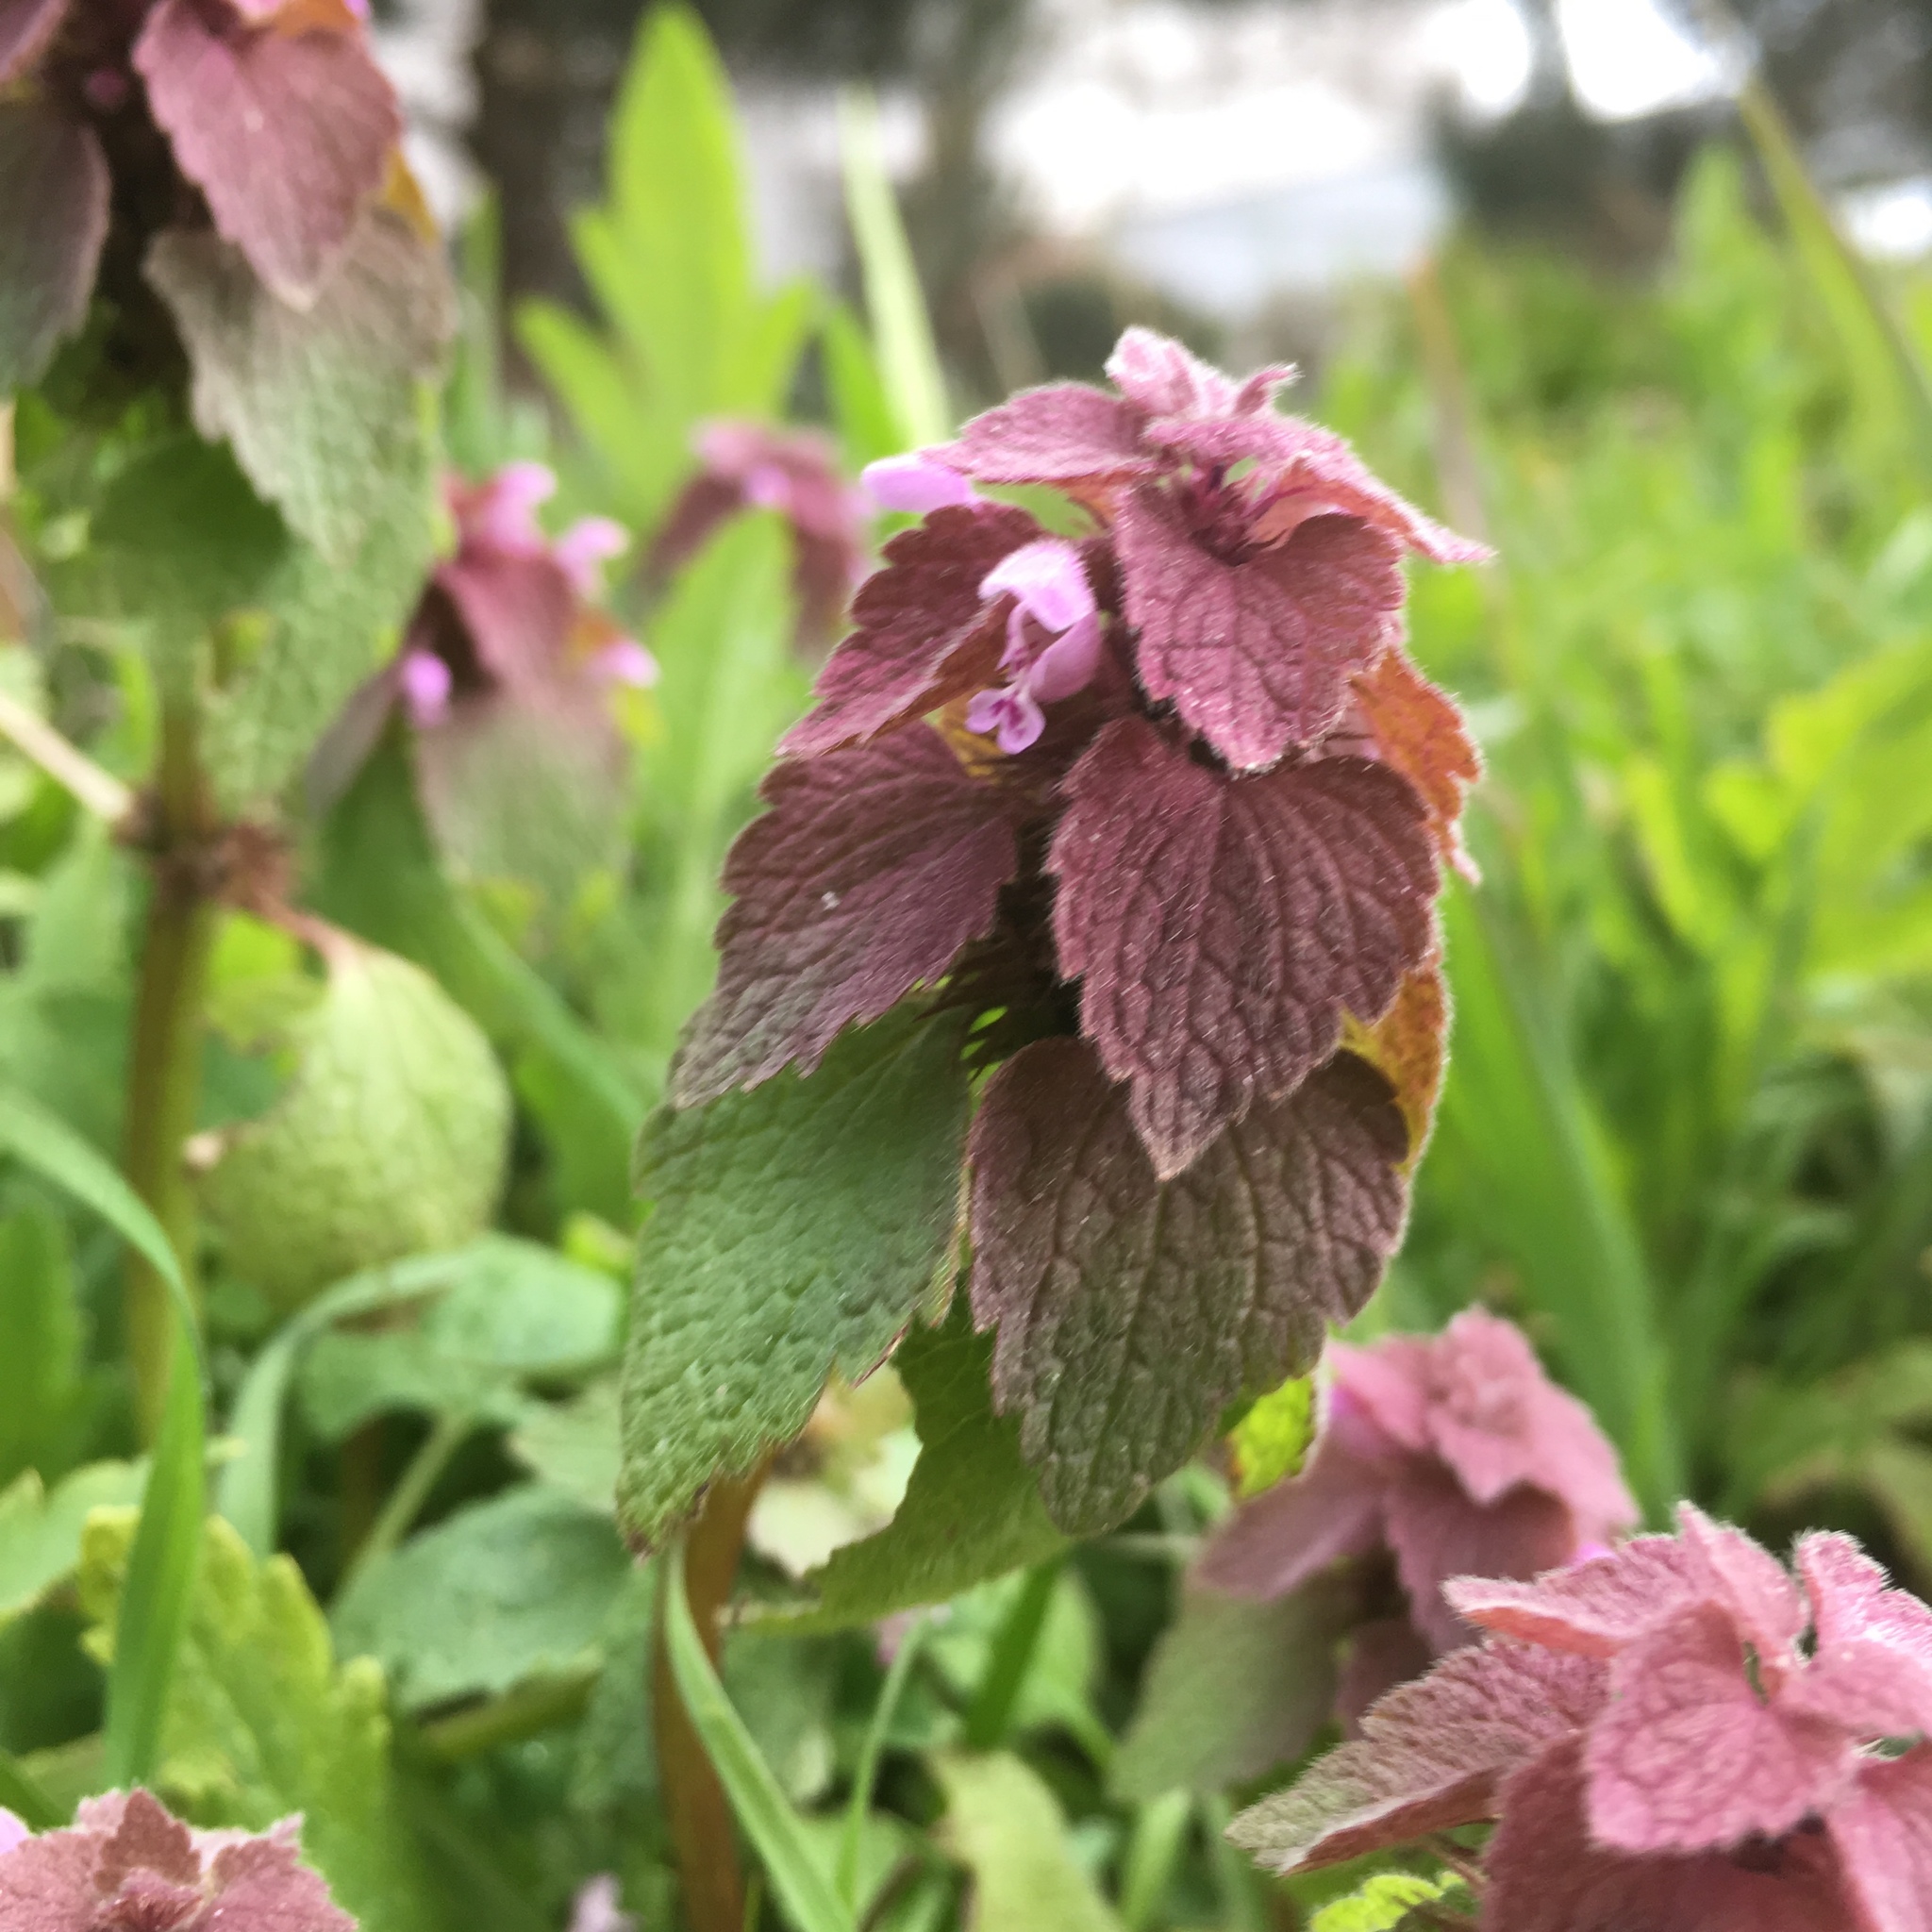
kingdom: Plantae
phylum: Tracheophyta
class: Magnoliopsida
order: Lamiales
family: Lamiaceae
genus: Lamium
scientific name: Lamium purpureum
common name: Red dead-nettle
